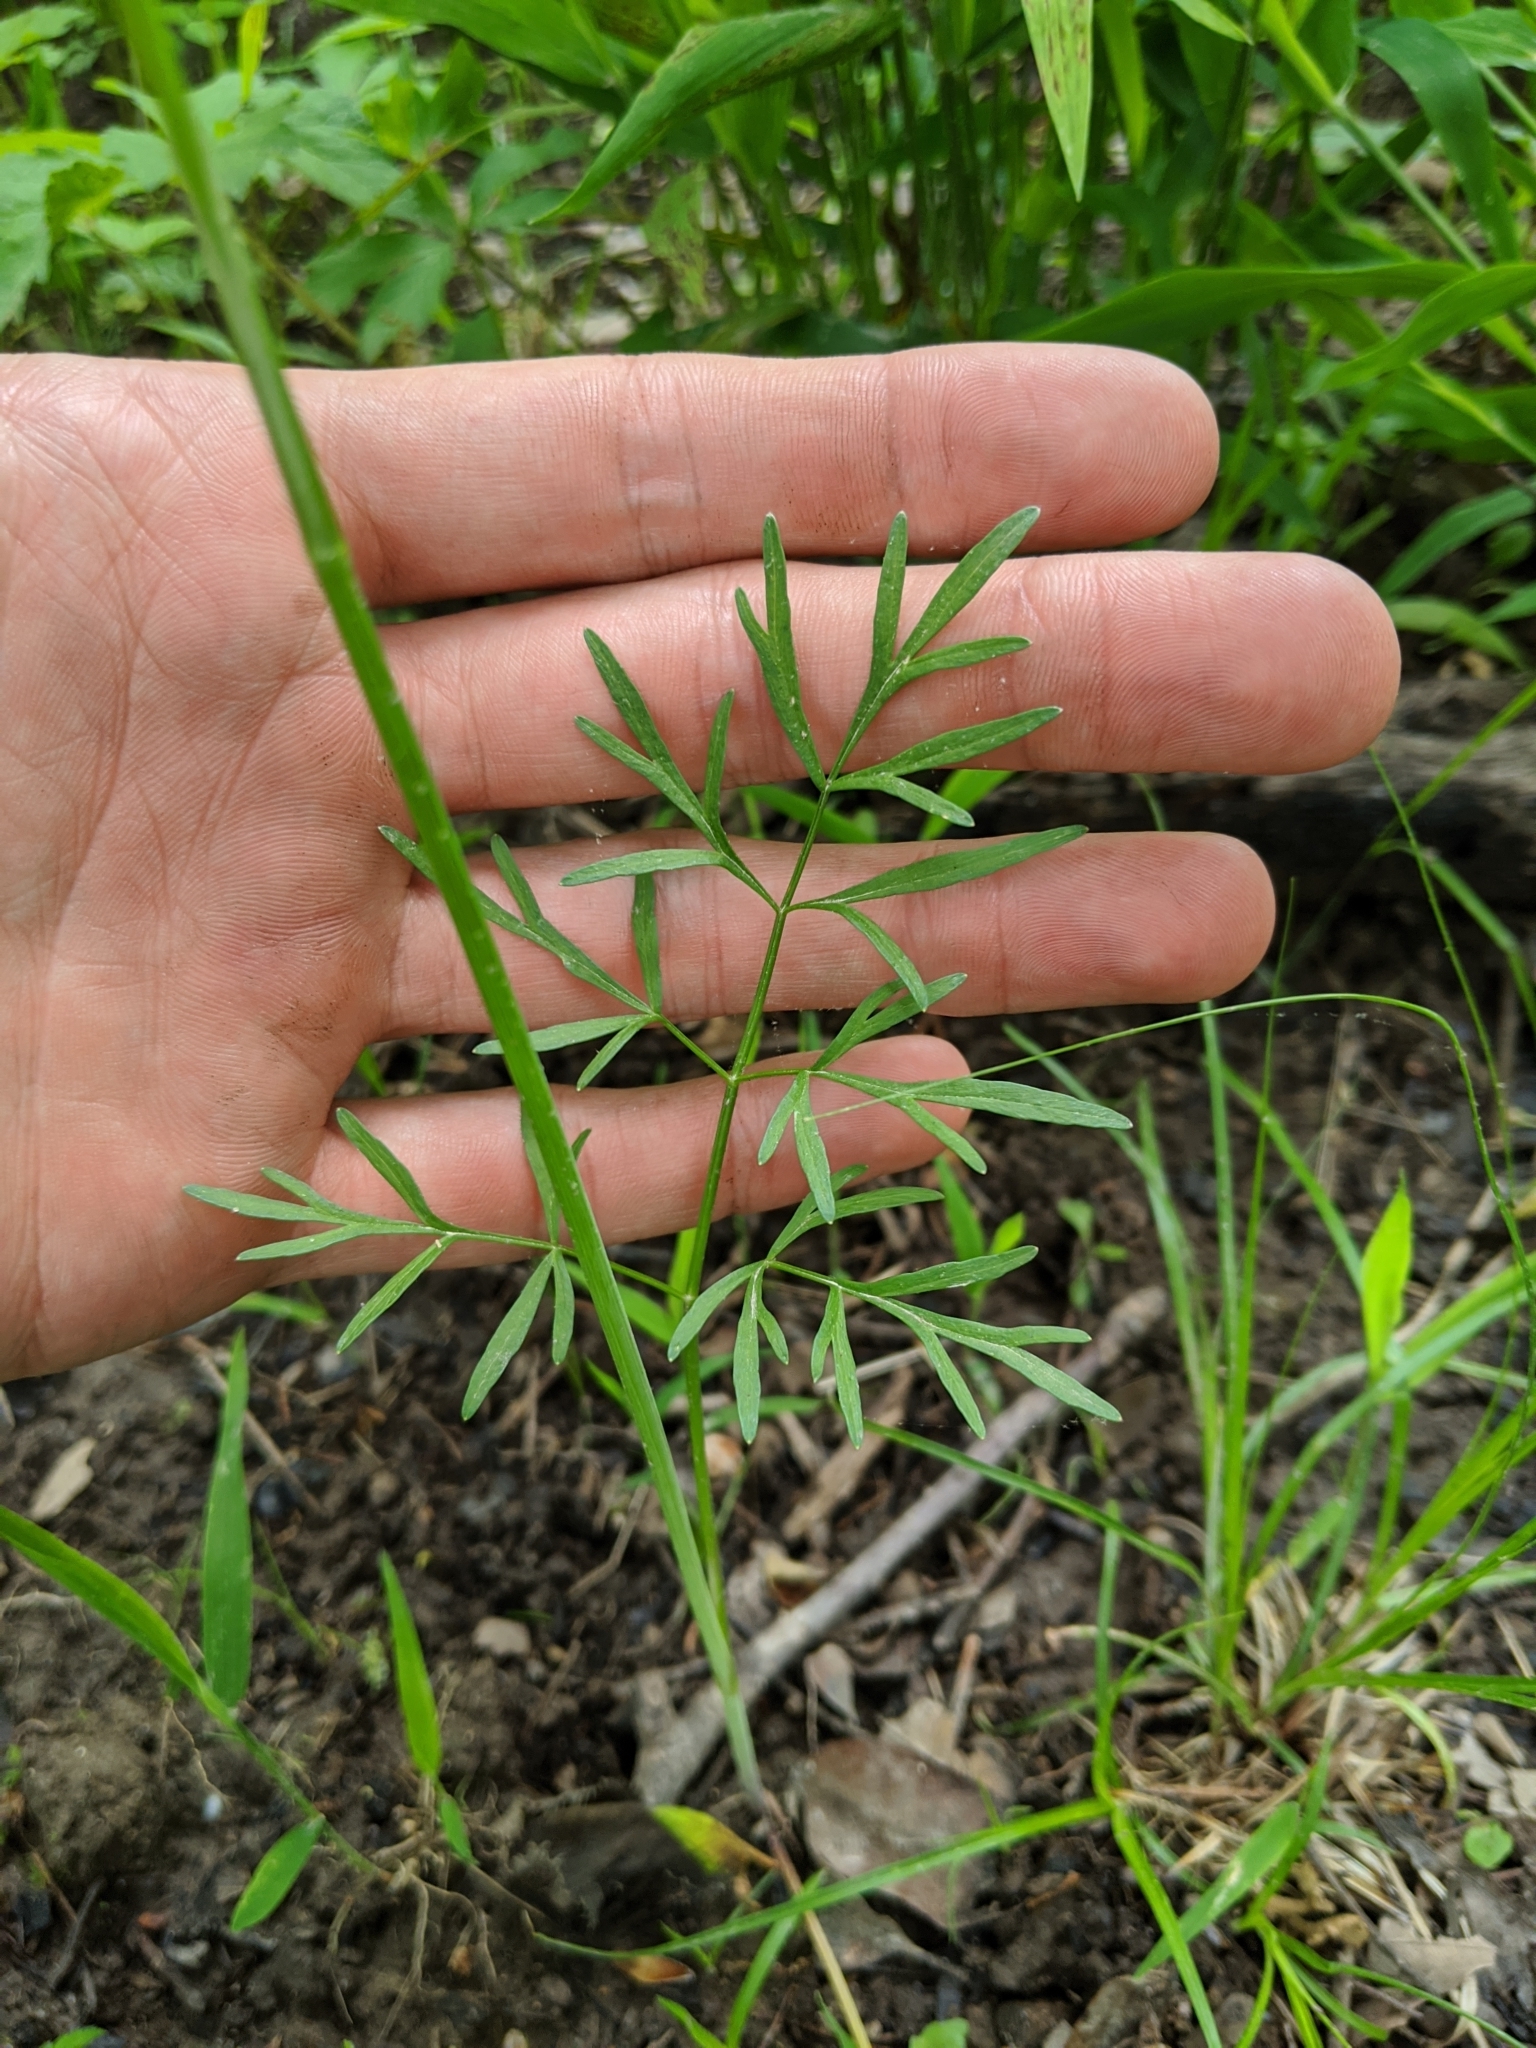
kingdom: Plantae
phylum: Tracheophyta
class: Magnoliopsida
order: Apiales
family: Apiaceae
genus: Perideridia
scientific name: Perideridia americana
